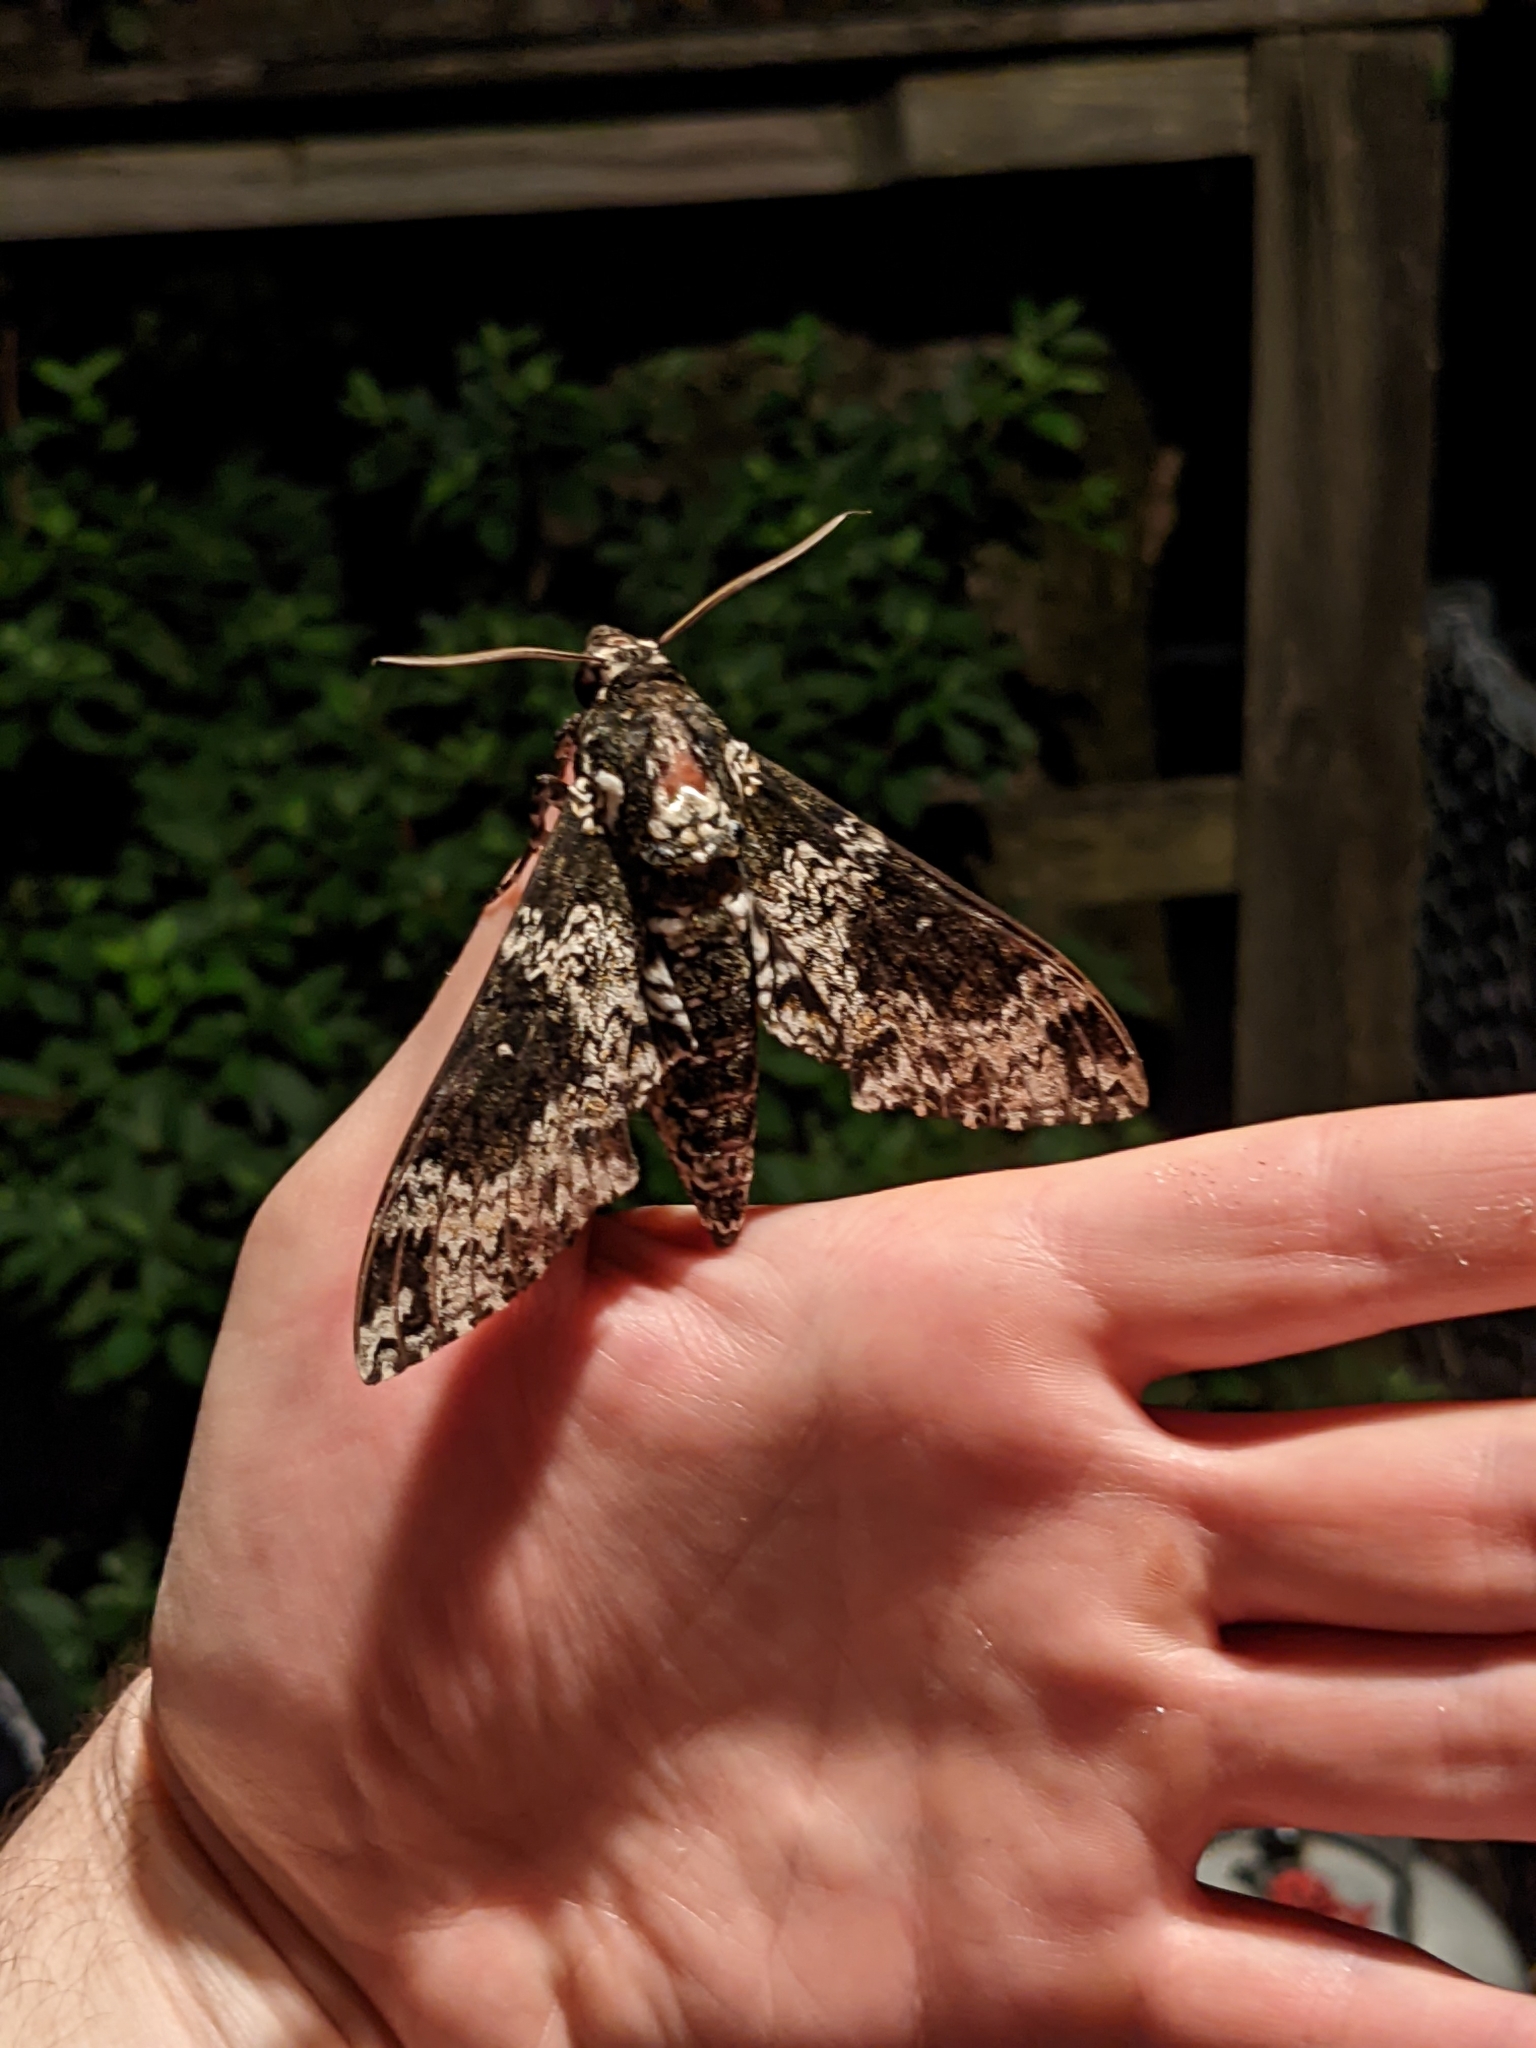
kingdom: Animalia
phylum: Arthropoda
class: Insecta
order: Lepidoptera
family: Sphingidae
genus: Manduca
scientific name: Manduca rustica
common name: Rustic sphinx
